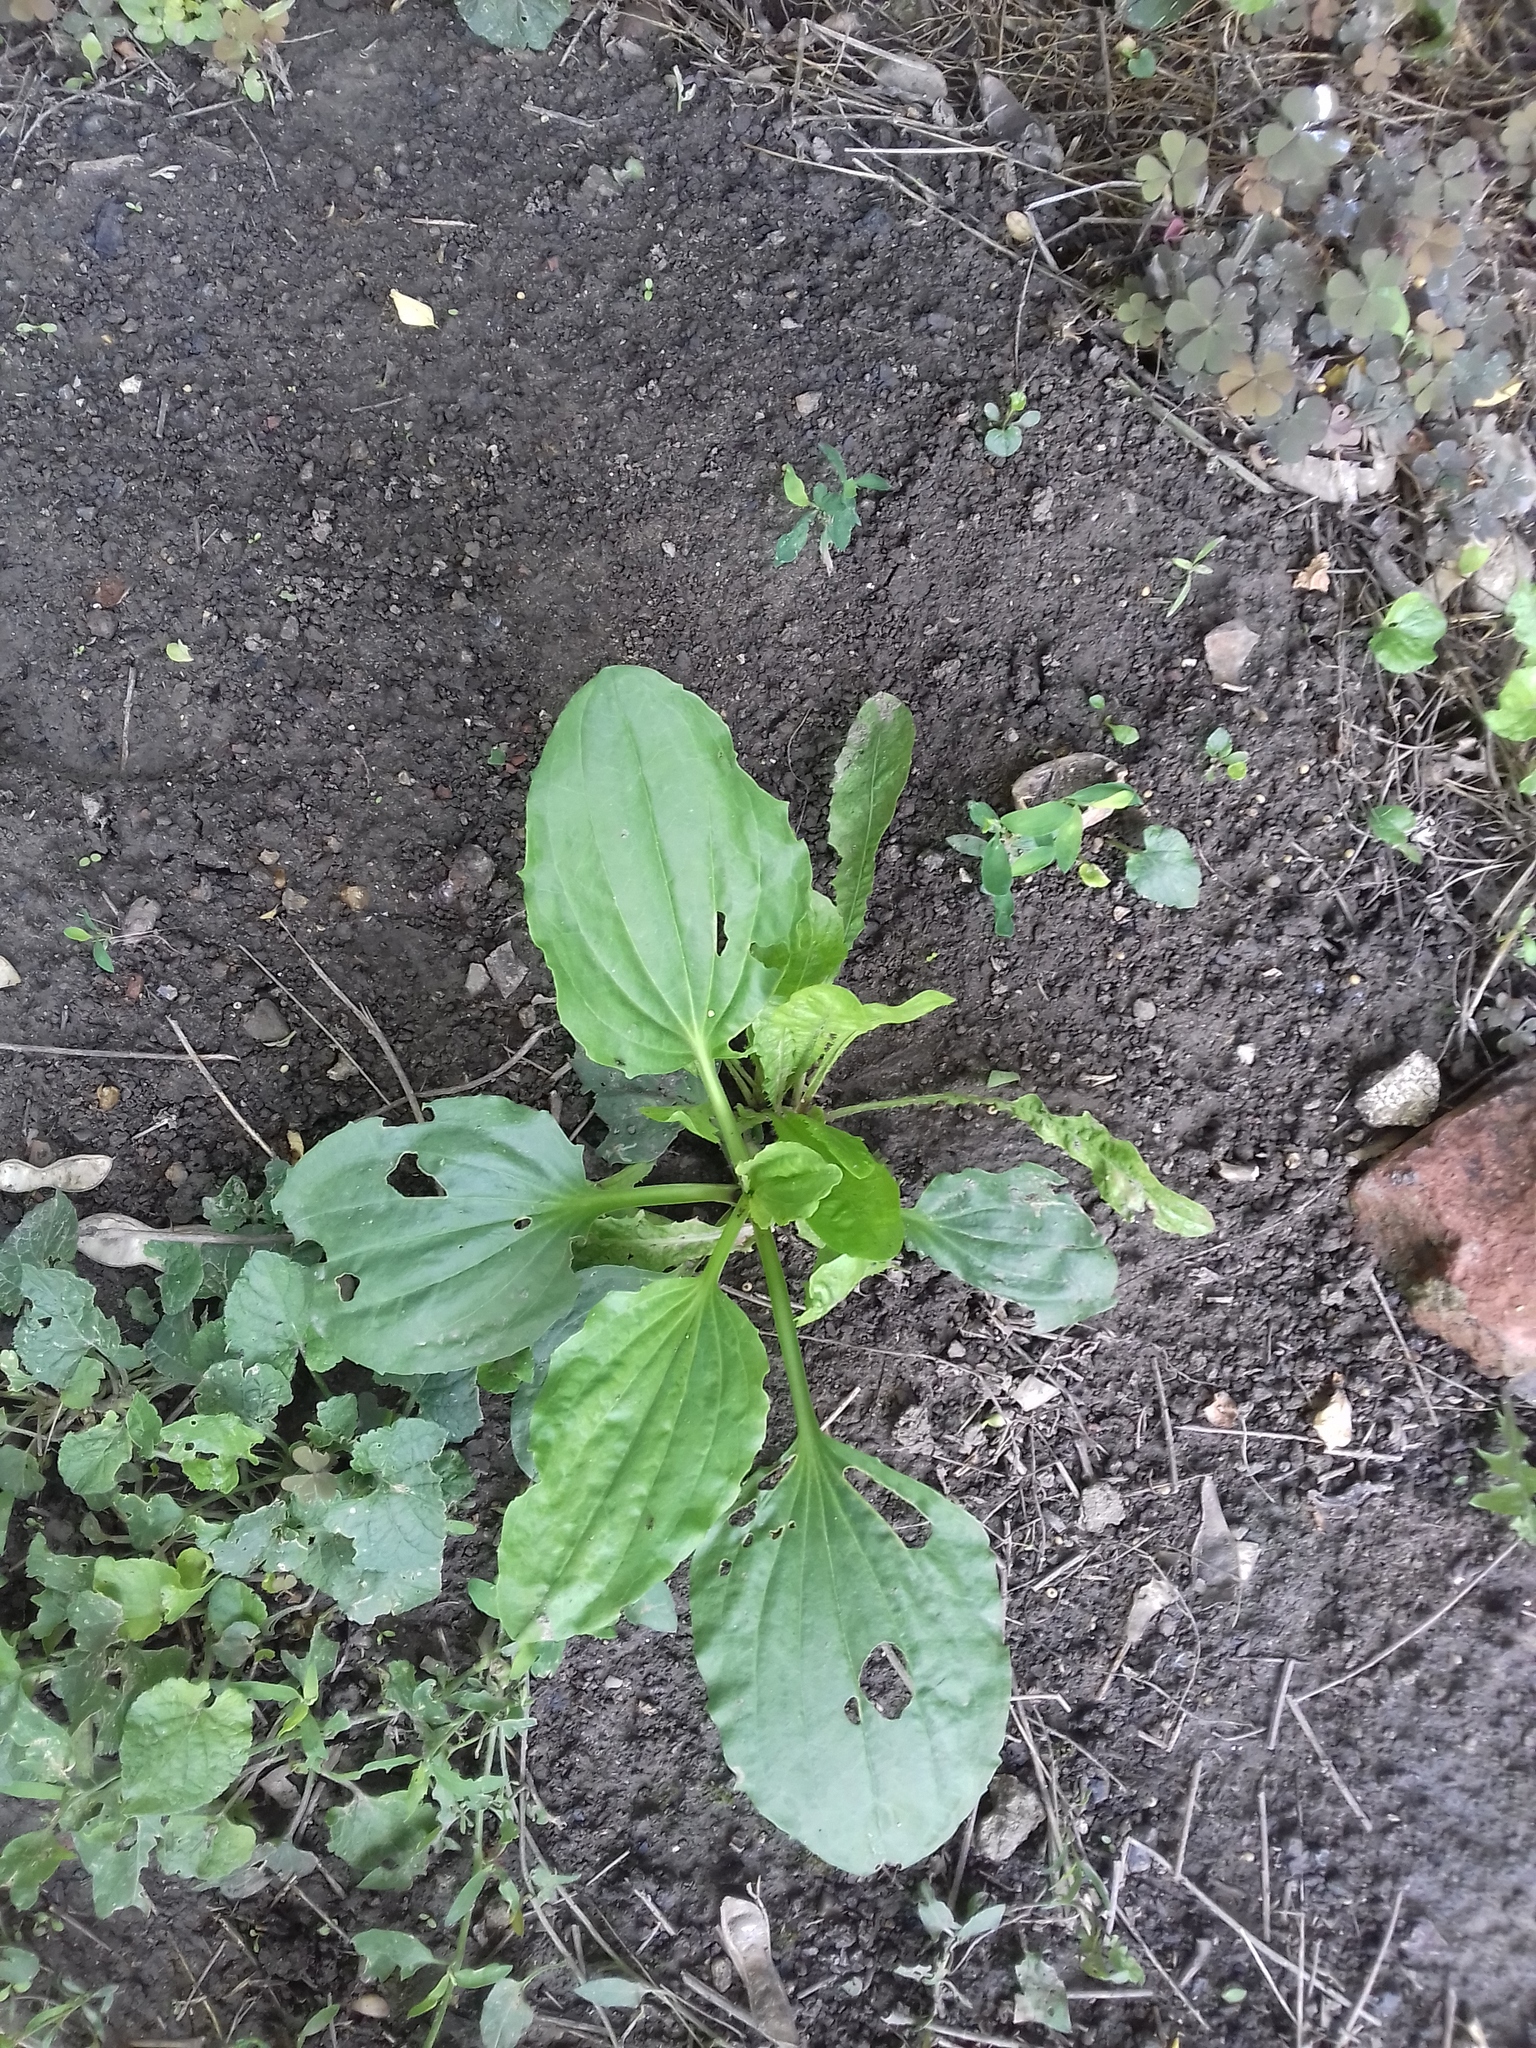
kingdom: Plantae
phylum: Tracheophyta
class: Magnoliopsida
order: Lamiales
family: Plantaginaceae
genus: Plantago
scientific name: Plantago major
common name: Common plantain
